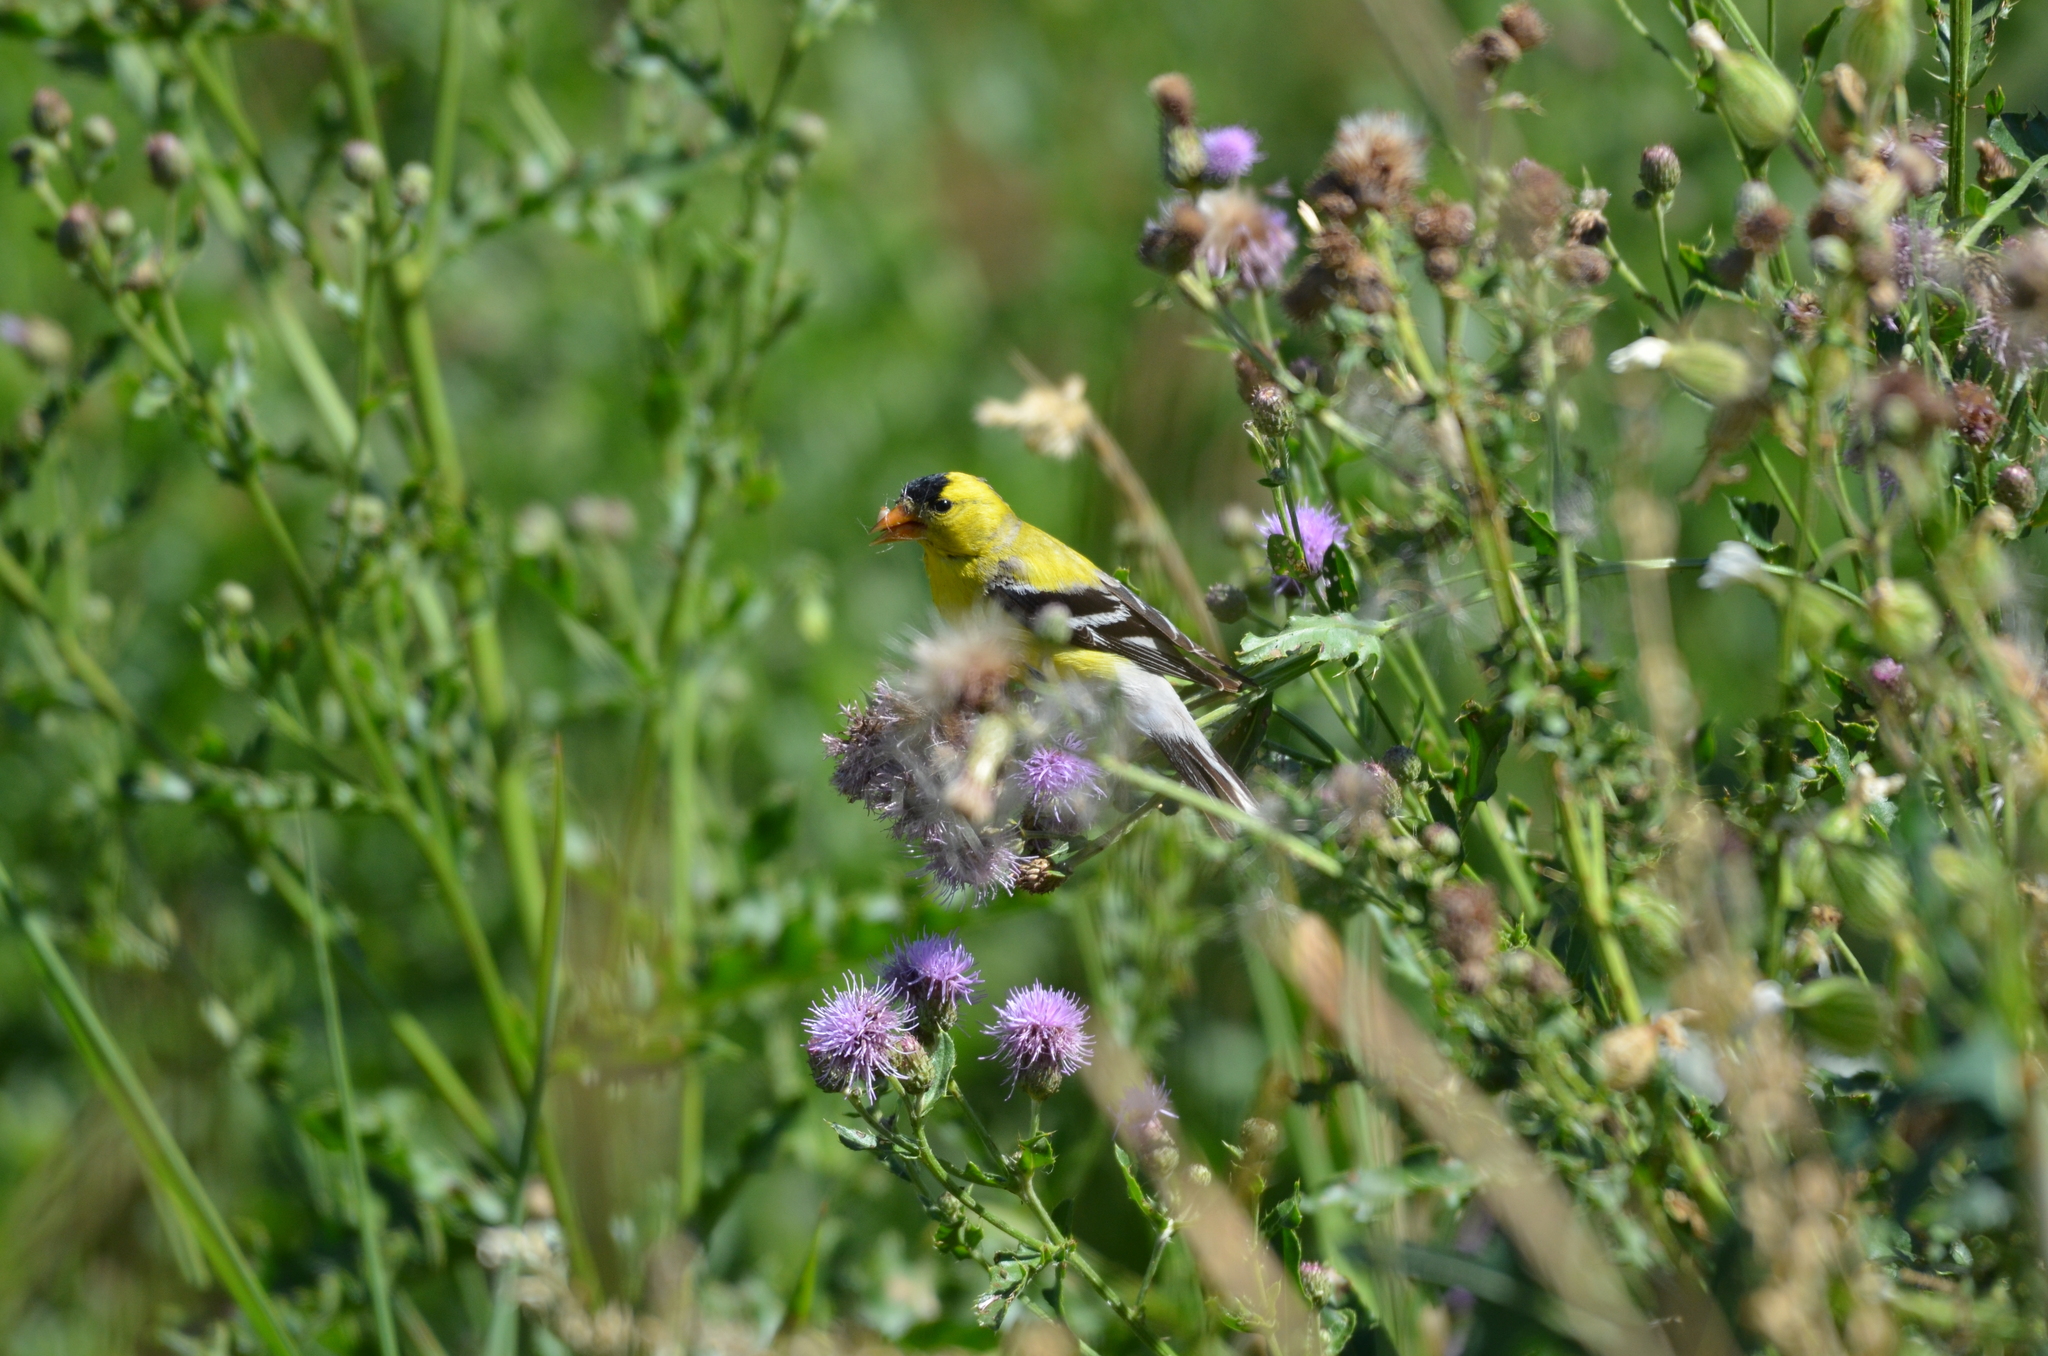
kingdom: Animalia
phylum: Chordata
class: Aves
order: Passeriformes
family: Fringillidae
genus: Spinus
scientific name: Spinus tristis
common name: American goldfinch
